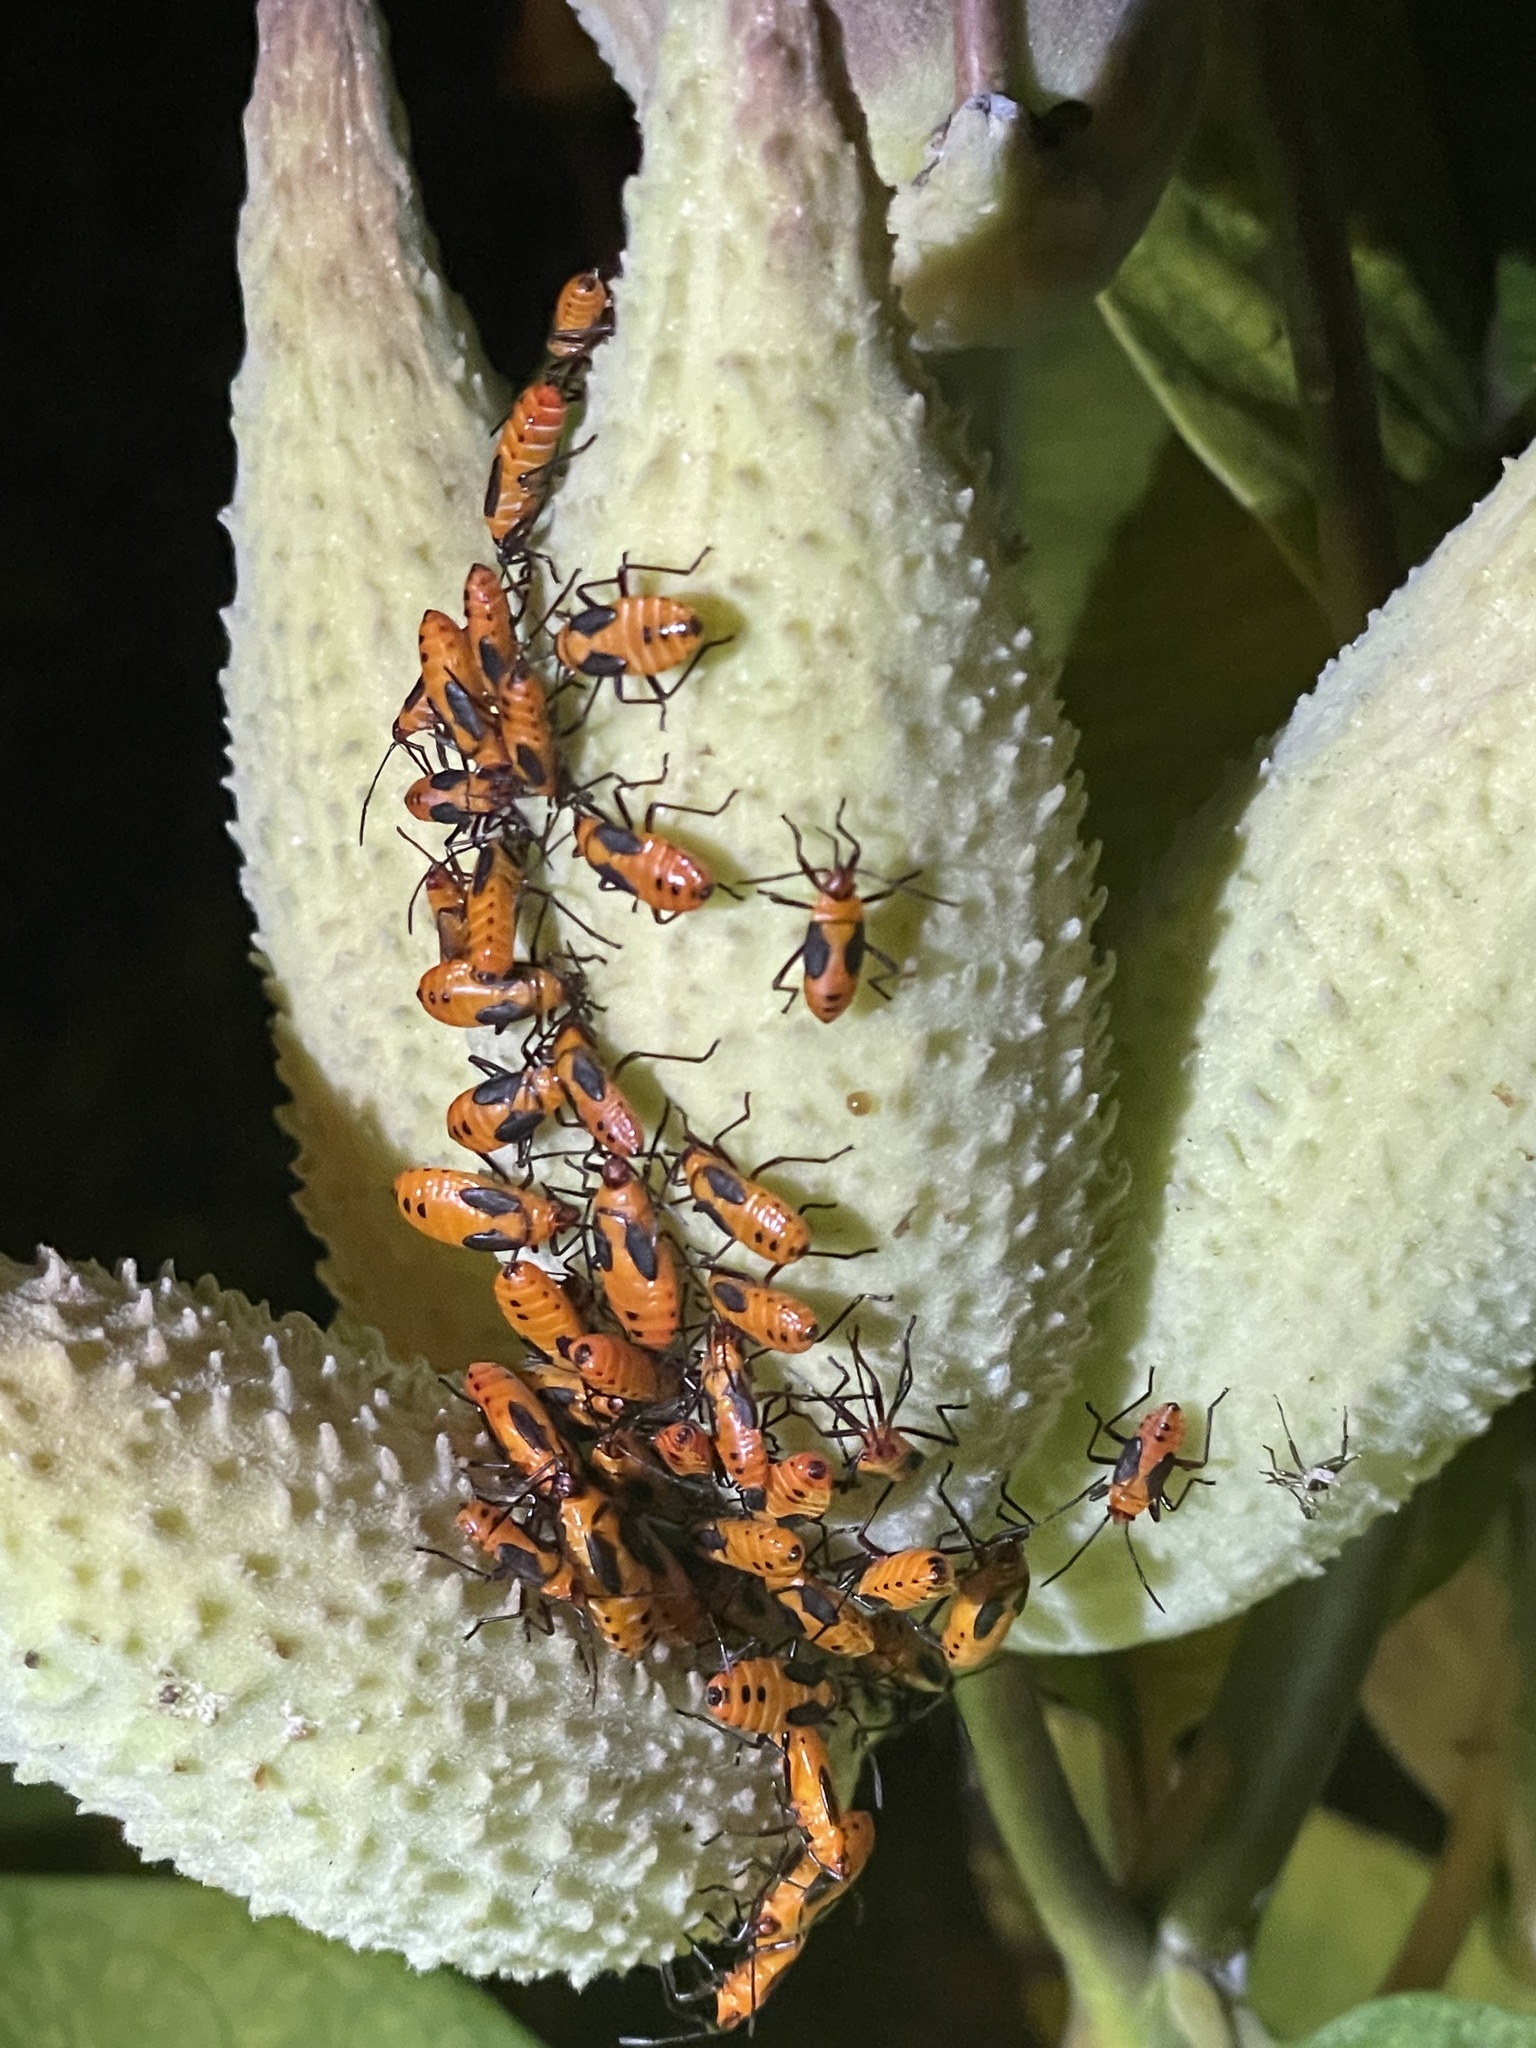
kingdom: Animalia
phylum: Arthropoda
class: Insecta
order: Hemiptera
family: Lygaeidae
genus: Oncopeltus
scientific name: Oncopeltus fasciatus
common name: Large milkweed bug
